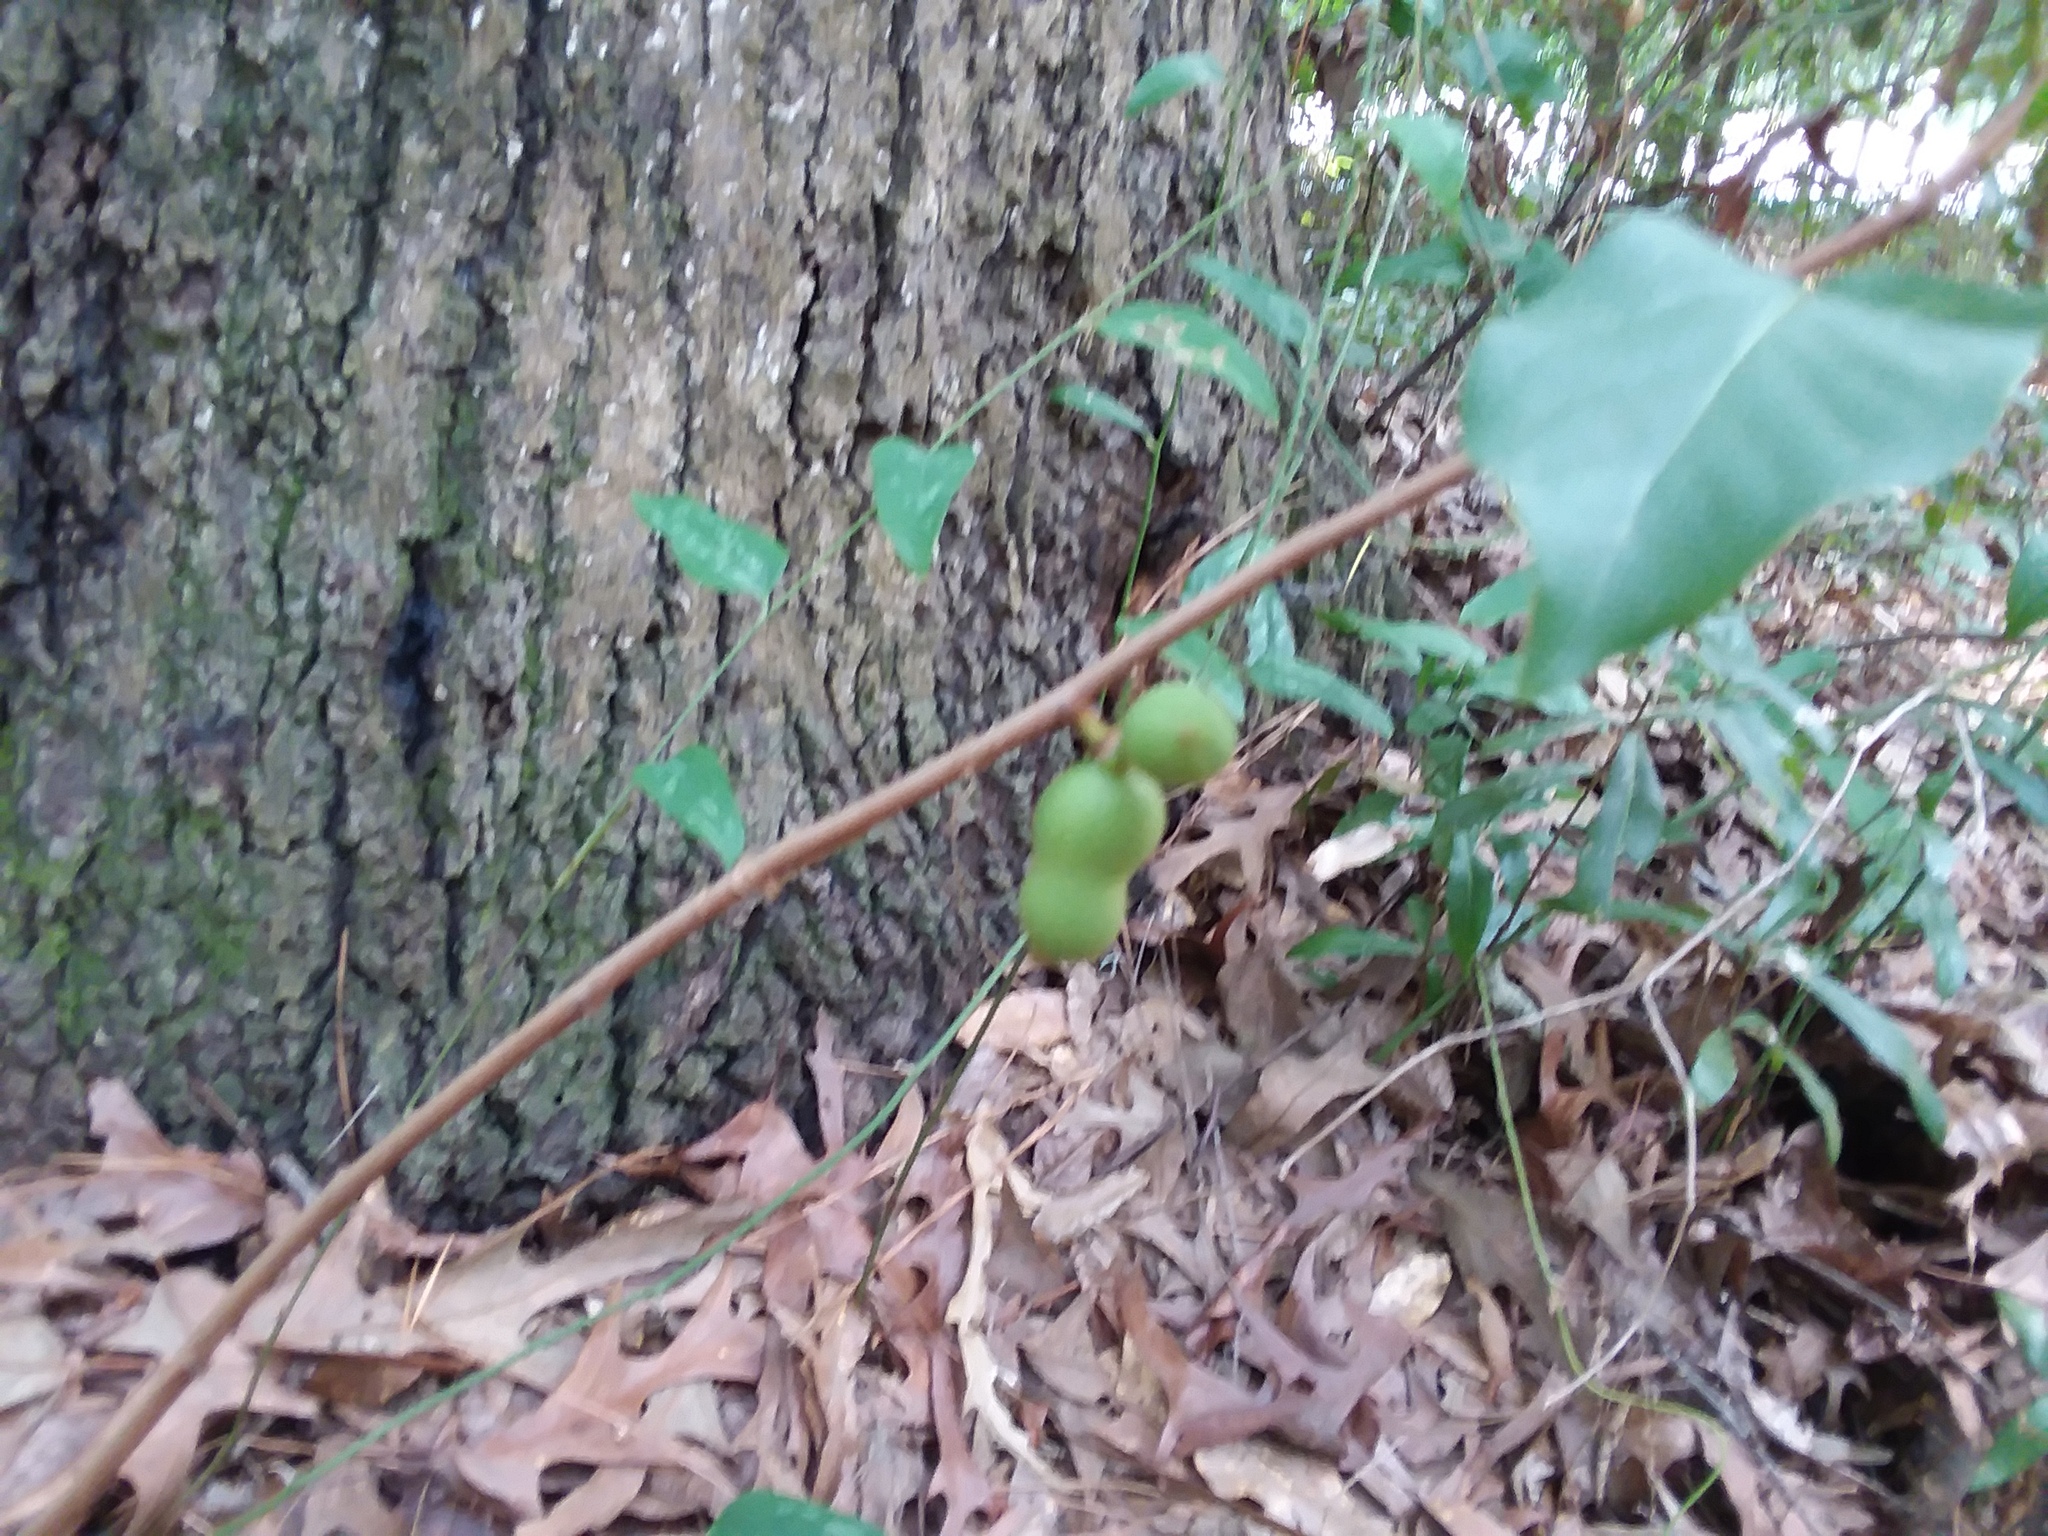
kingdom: Plantae
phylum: Tracheophyta
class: Magnoliopsida
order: Magnoliales
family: Annonaceae
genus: Asimina
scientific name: Asimina parviflora
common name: Dwarf pawpaw
